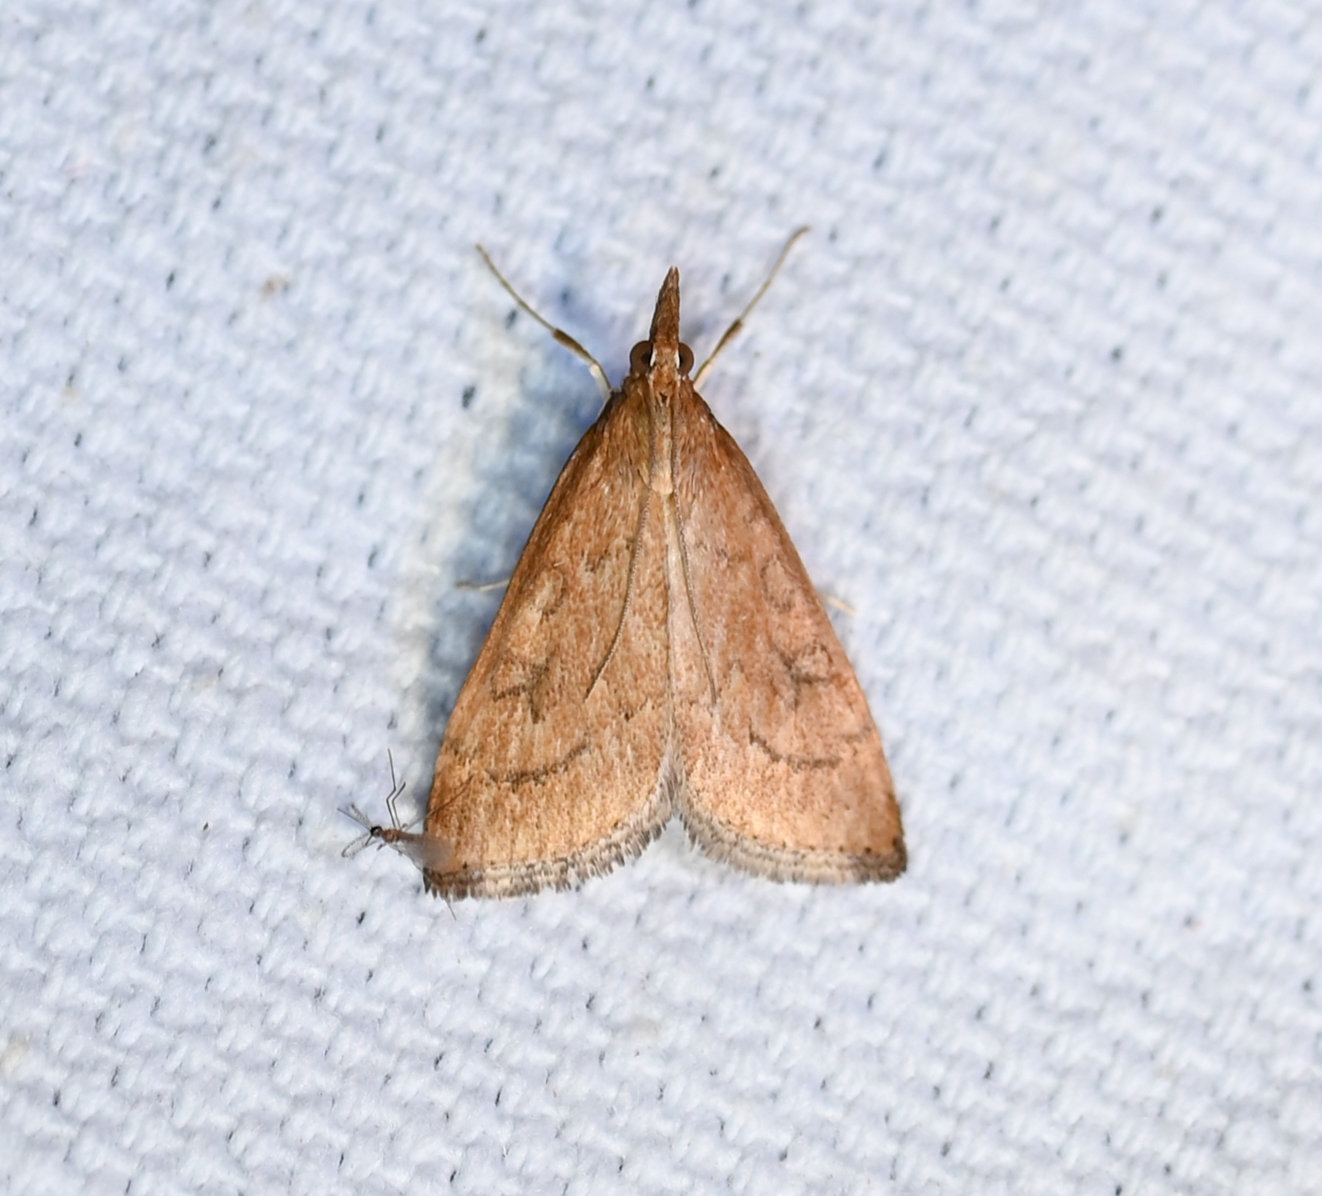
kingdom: Animalia
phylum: Arthropoda
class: Insecta
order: Lepidoptera
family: Crambidae
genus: Udea
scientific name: Udea rubigalis
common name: Celery leaftier moth
